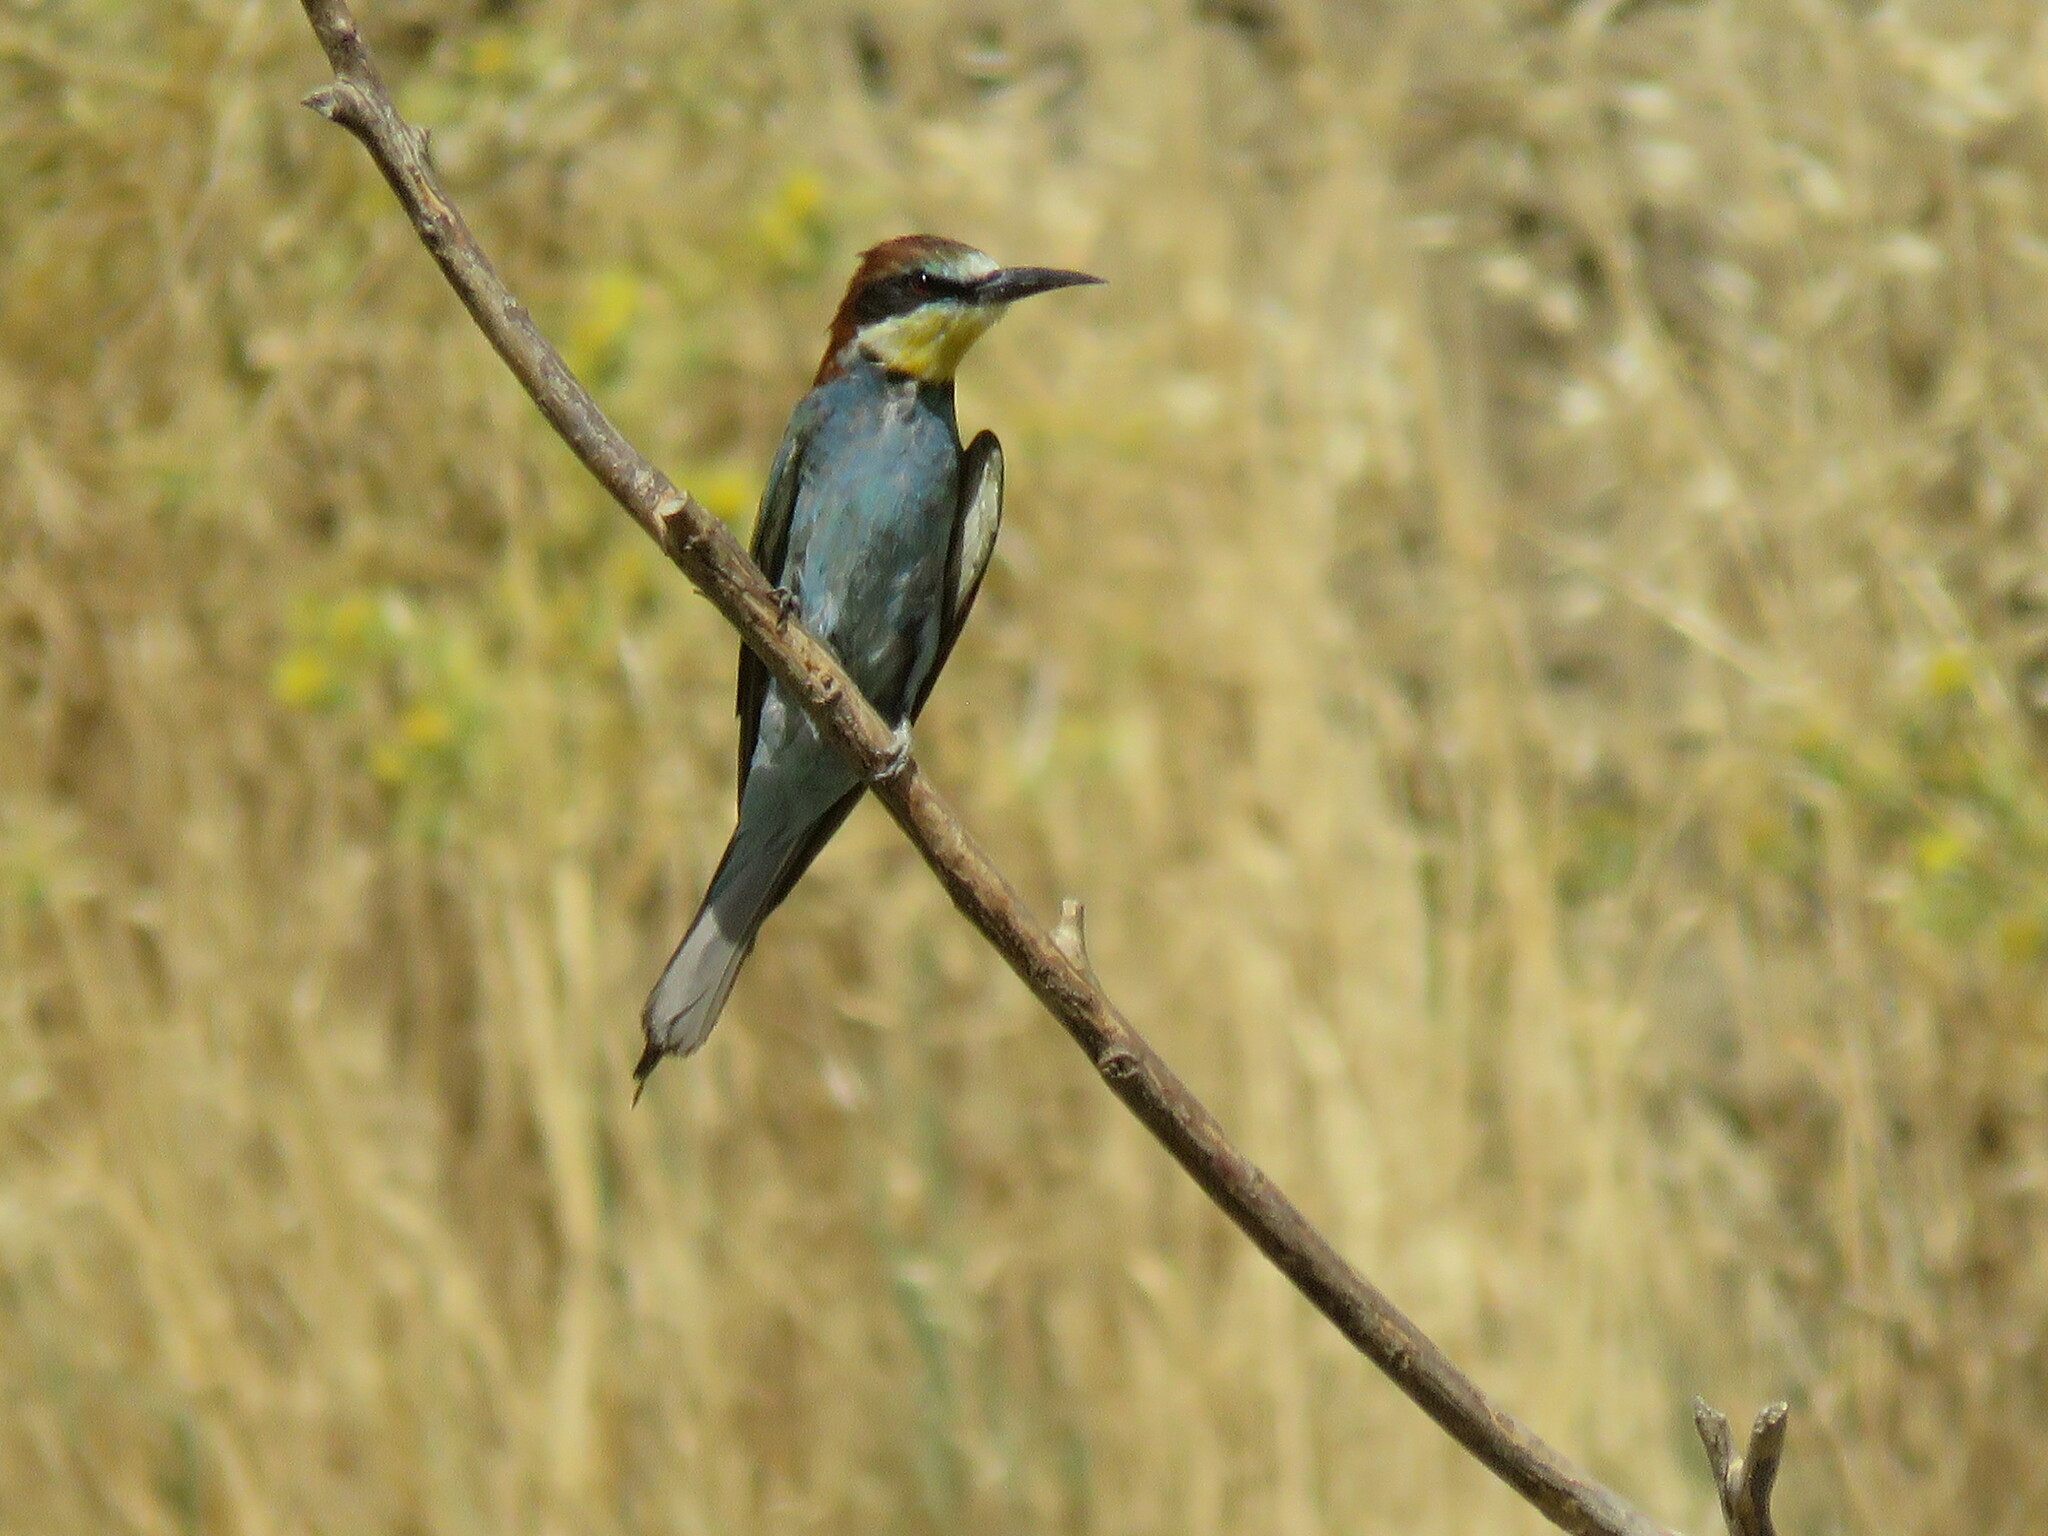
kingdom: Animalia
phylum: Chordata
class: Aves
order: Coraciiformes
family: Meropidae
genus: Merops
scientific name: Merops apiaster
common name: European bee-eater
